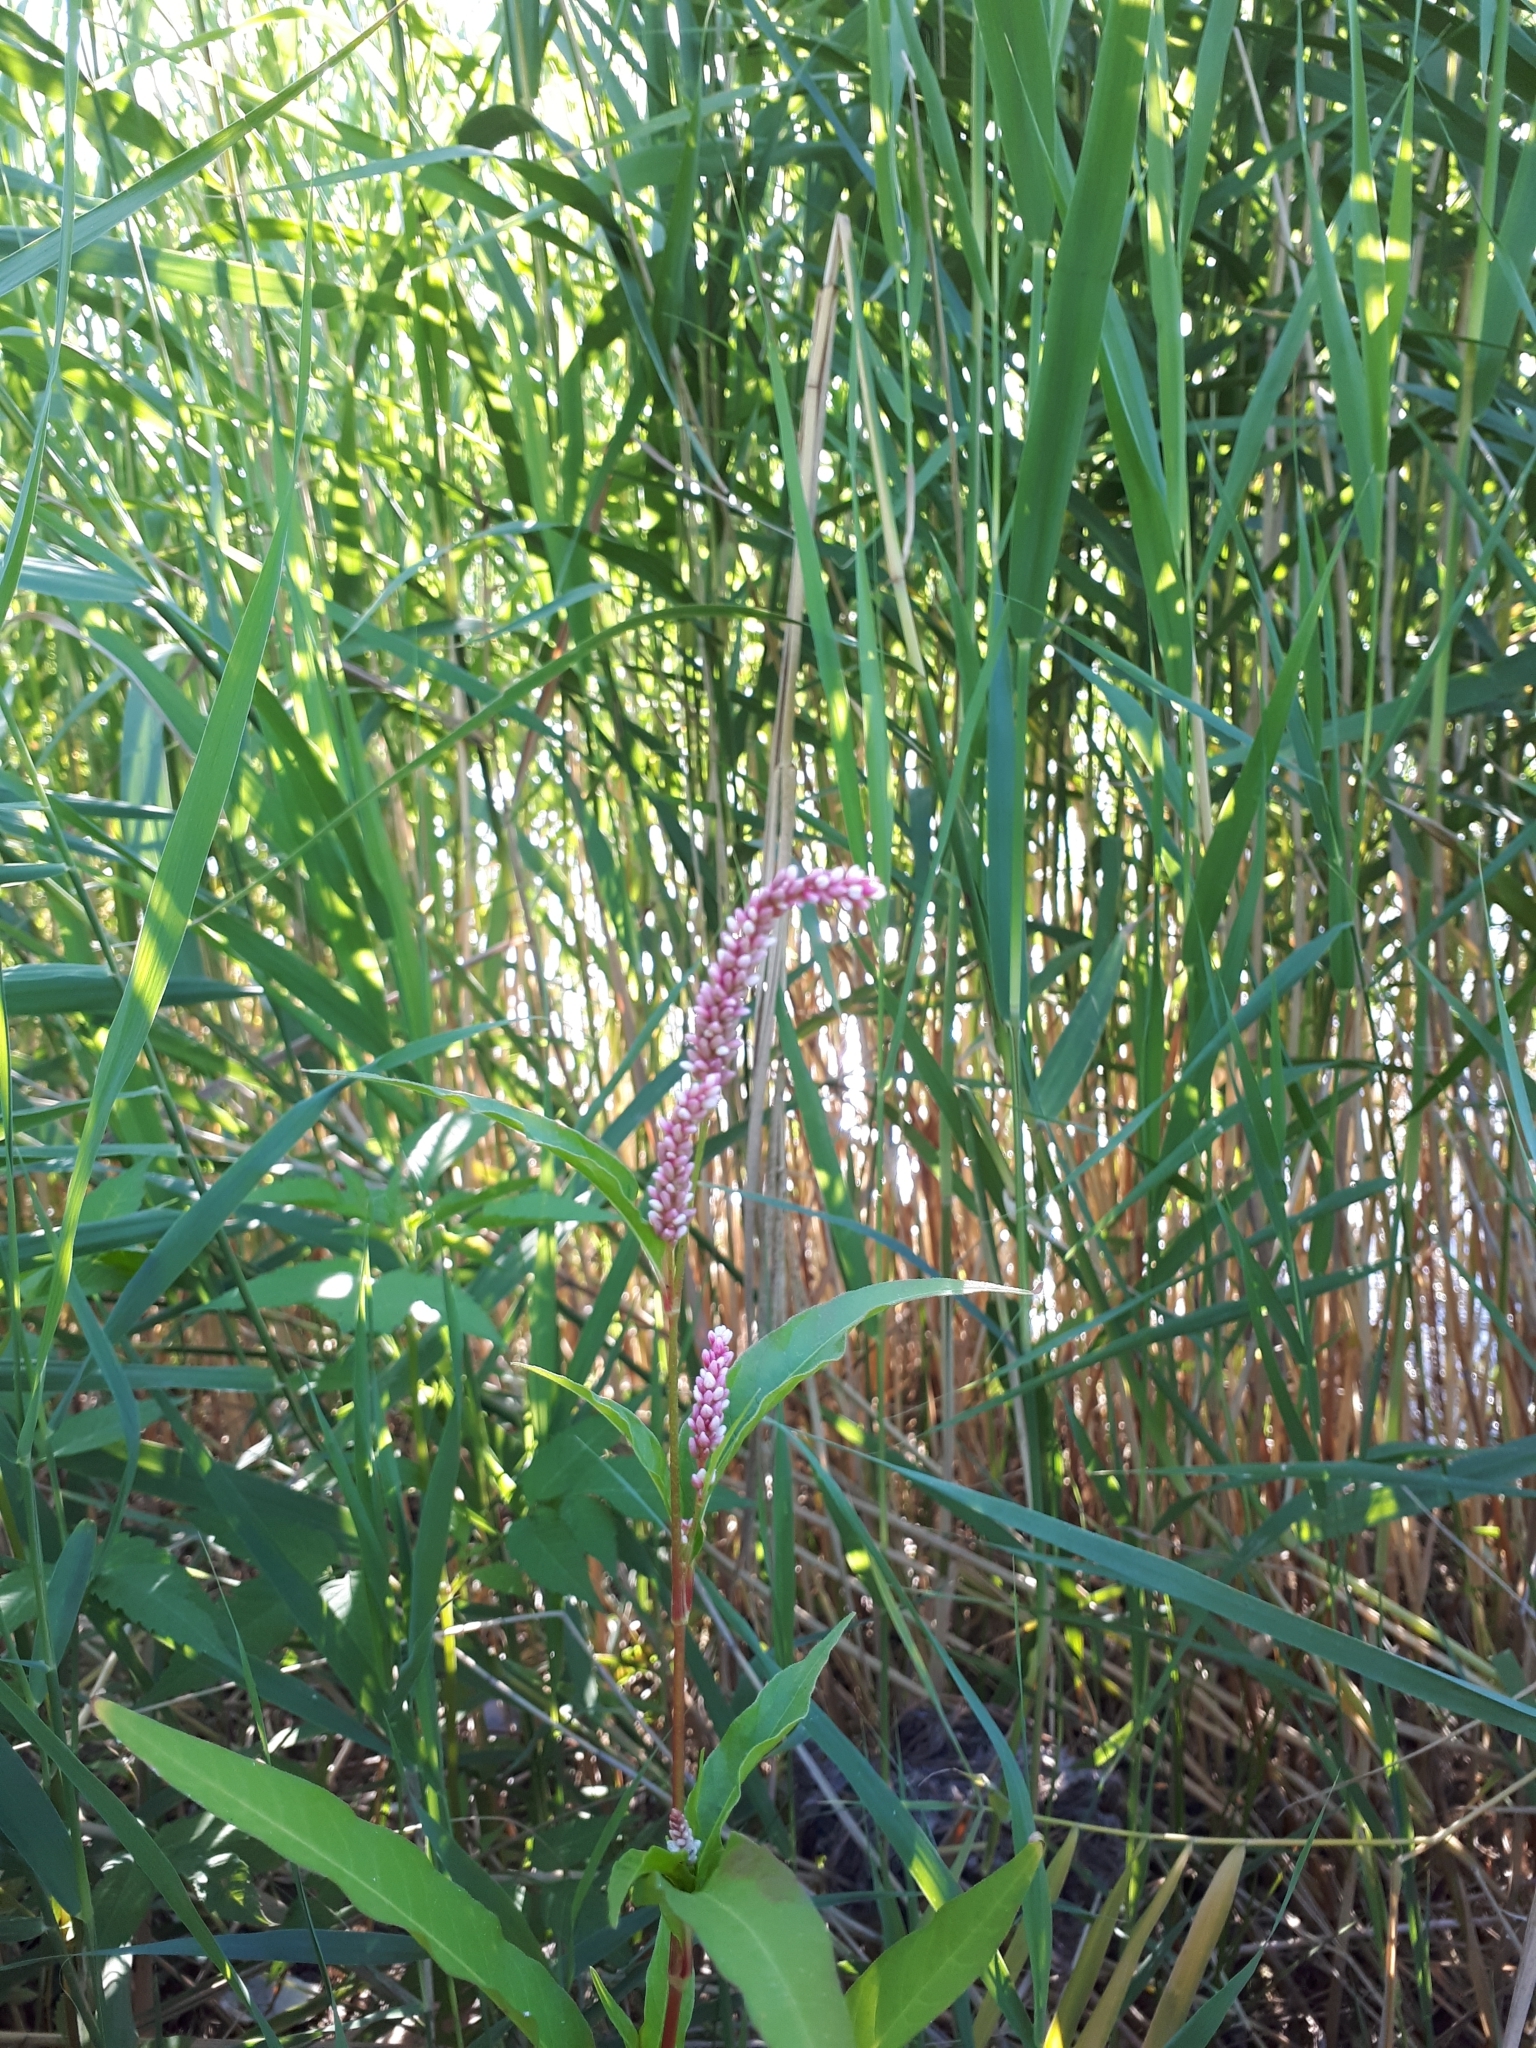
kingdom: Plantae
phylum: Tracheophyta
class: Magnoliopsida
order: Caryophyllales
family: Polygonaceae
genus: Persicaria
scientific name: Persicaria maculosa
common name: Redshank
